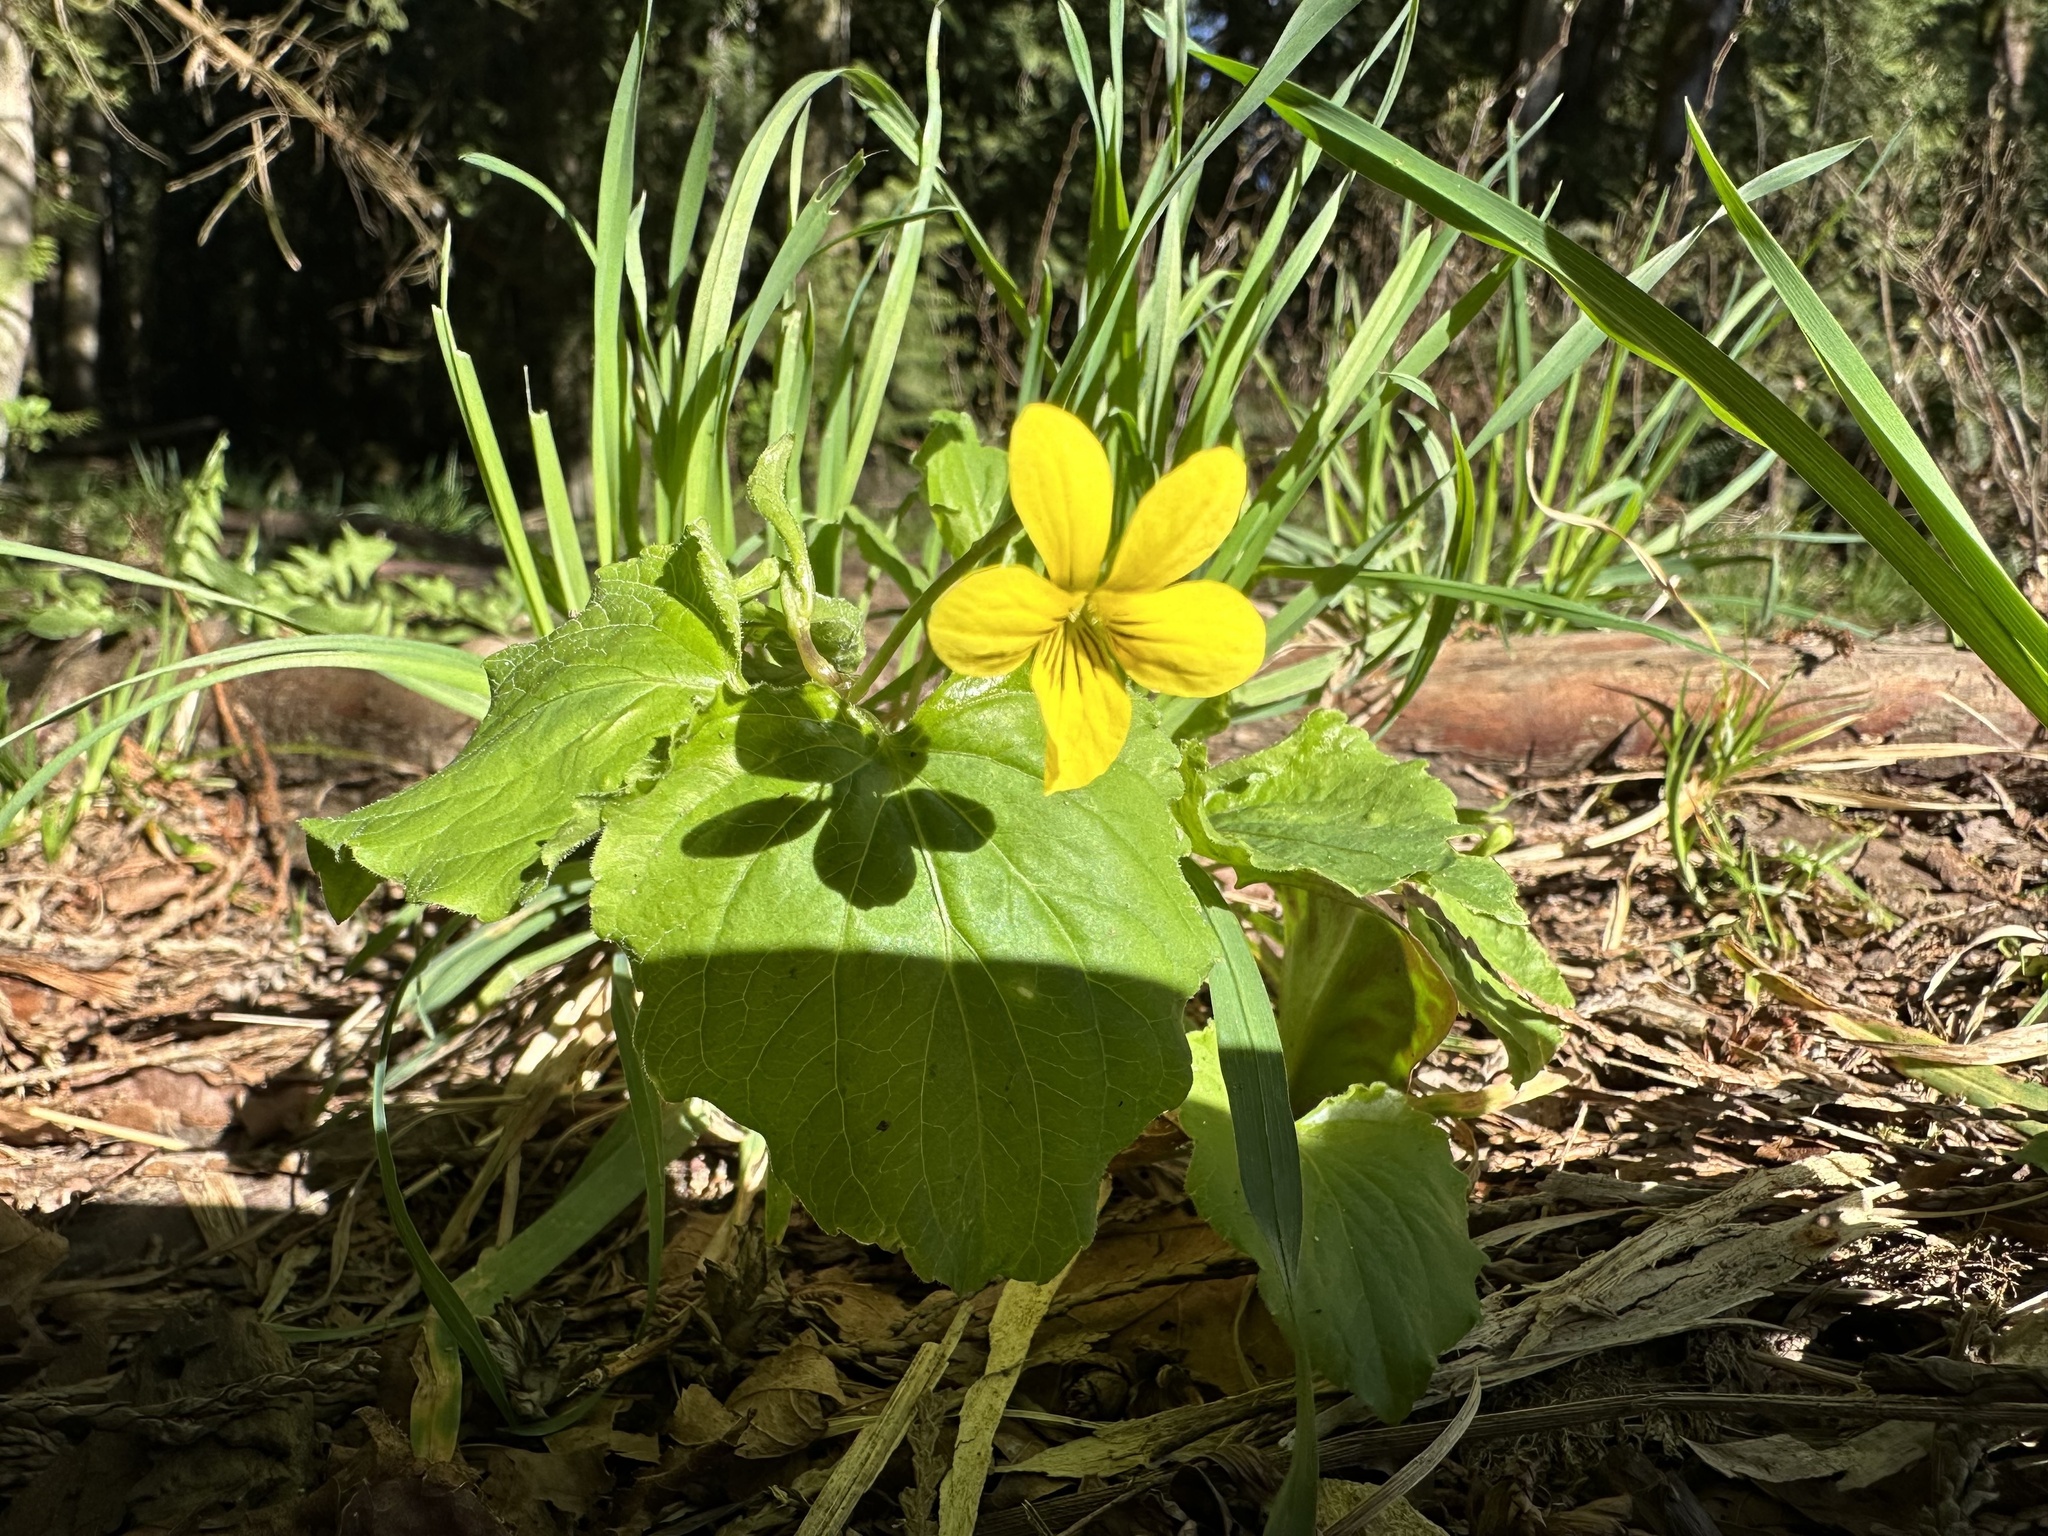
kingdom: Plantae
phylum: Tracheophyta
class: Magnoliopsida
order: Malpighiales
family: Violaceae
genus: Viola
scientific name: Viola glabella
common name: Stream violet
